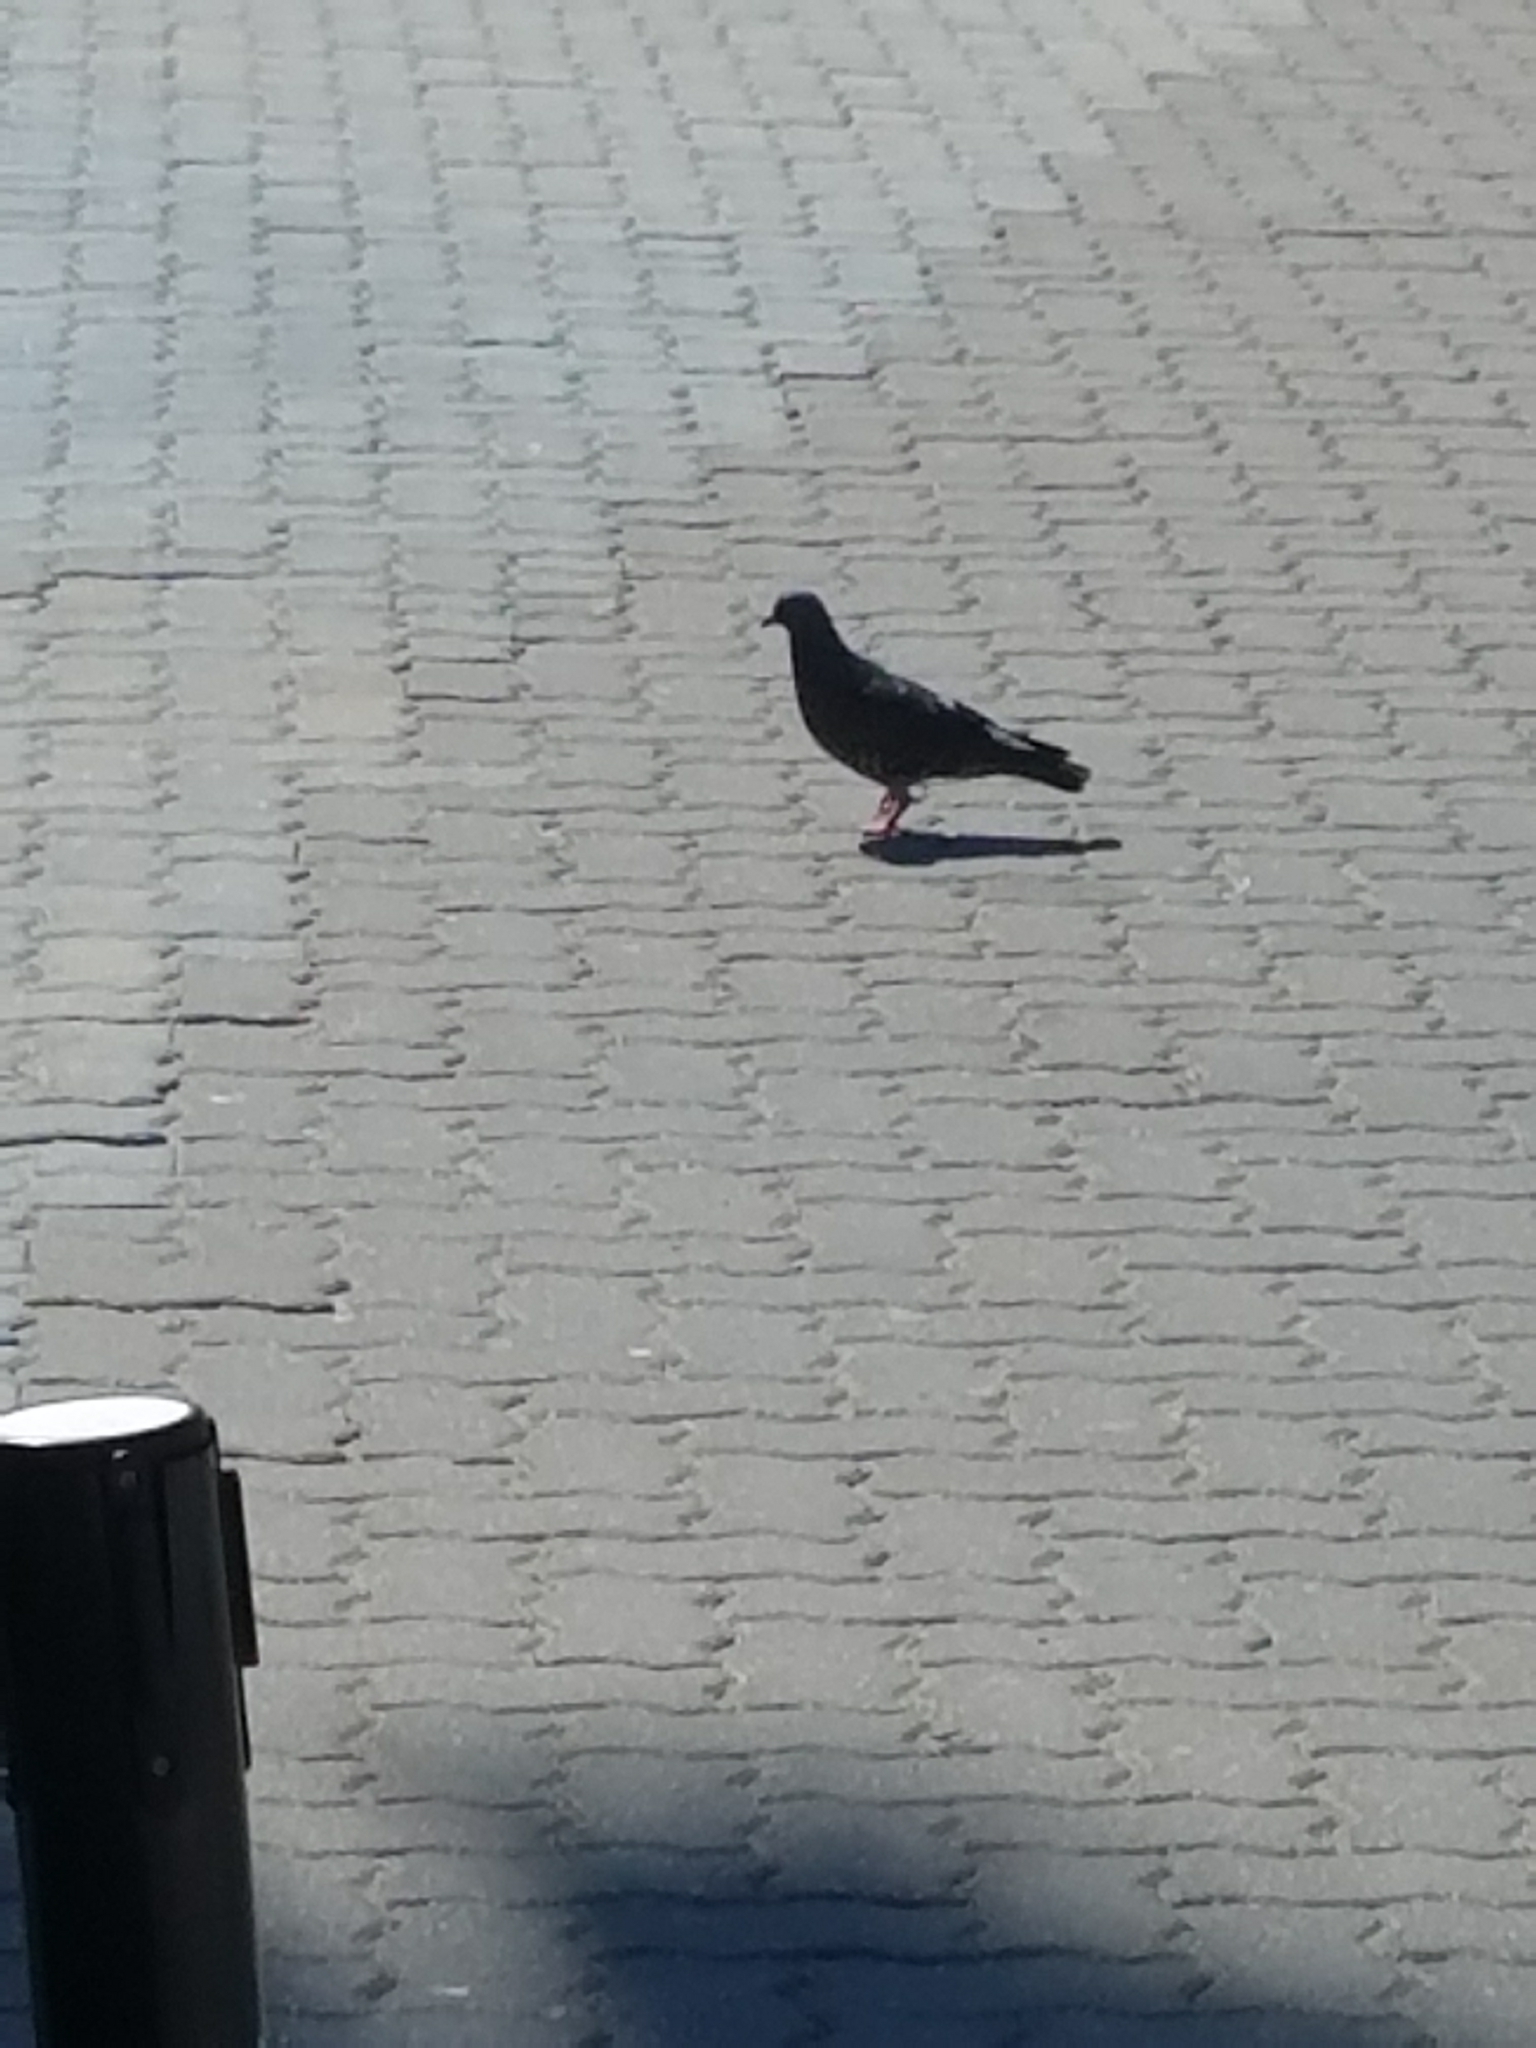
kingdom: Animalia
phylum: Chordata
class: Aves
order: Columbiformes
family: Columbidae
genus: Columba
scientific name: Columba livia
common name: Rock pigeon
